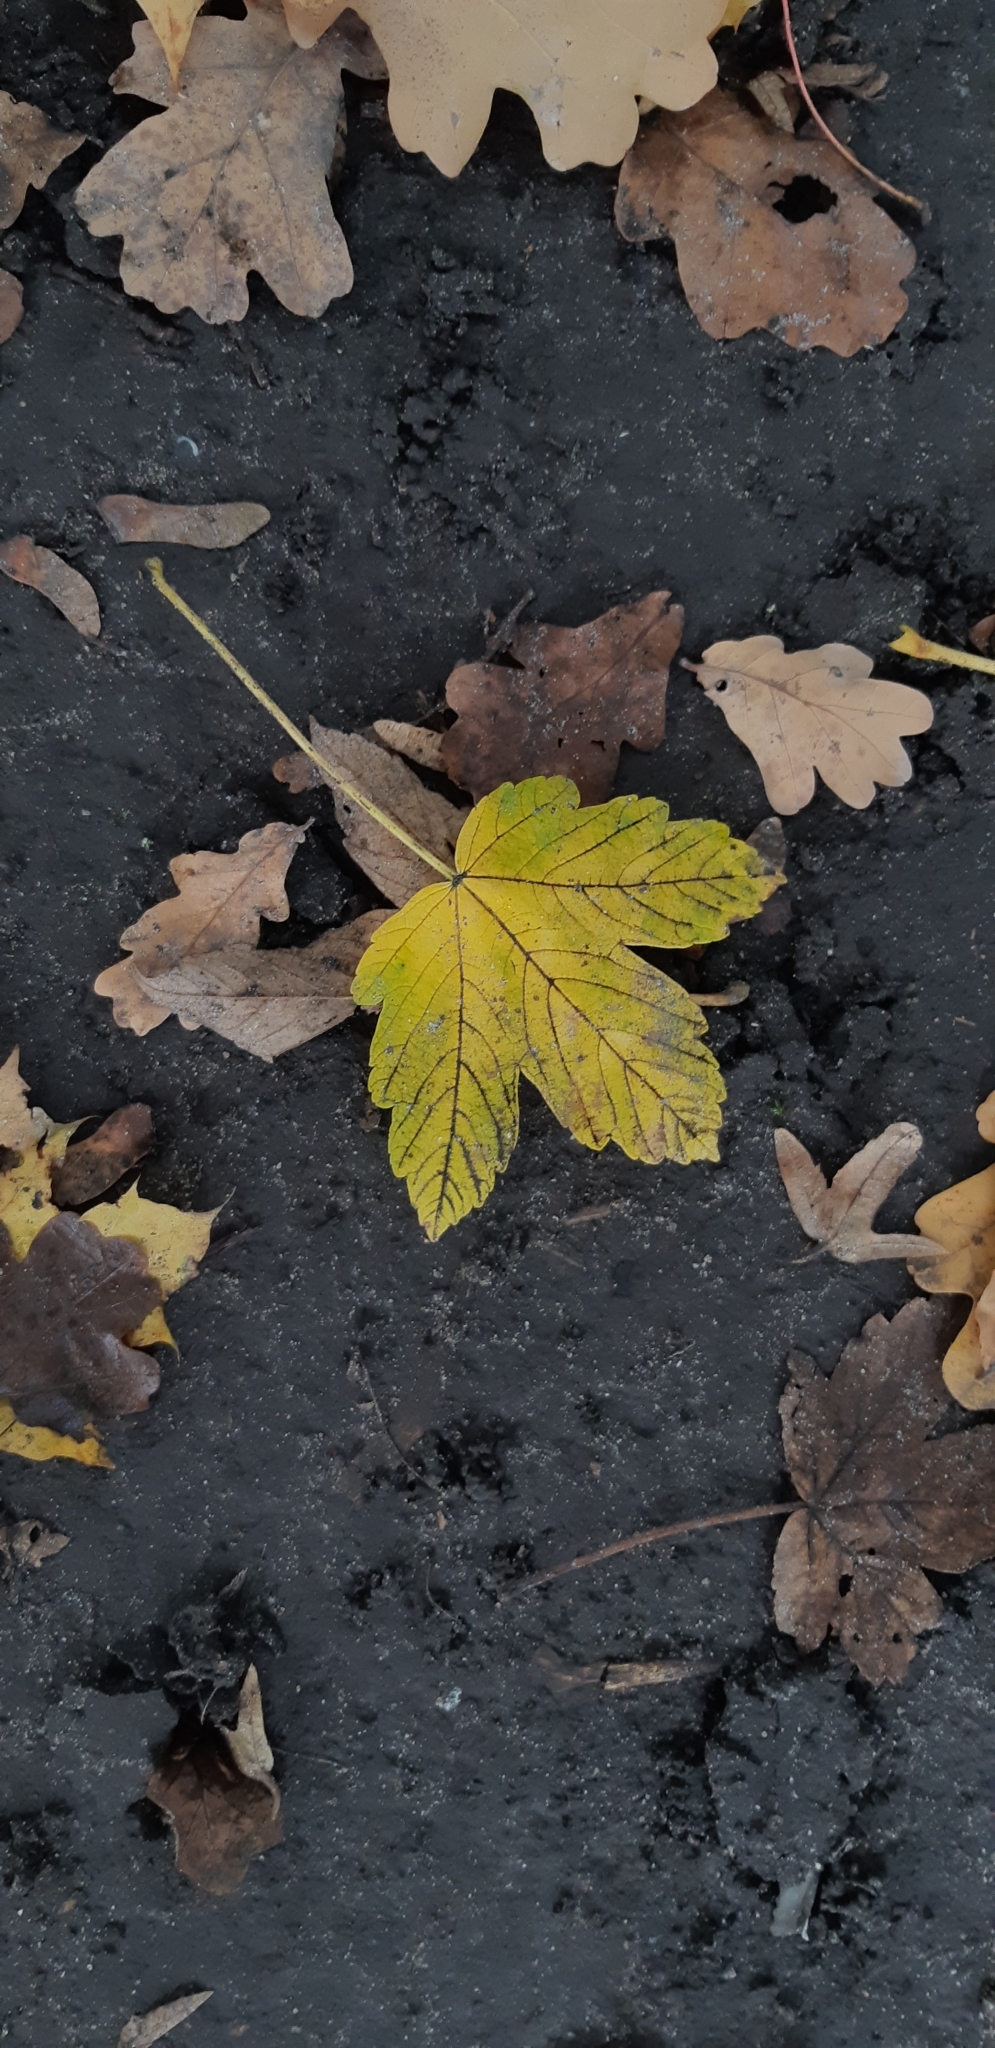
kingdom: Plantae
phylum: Tracheophyta
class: Magnoliopsida
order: Sapindales
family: Sapindaceae
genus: Acer
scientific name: Acer pseudoplatanus
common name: Sycamore
